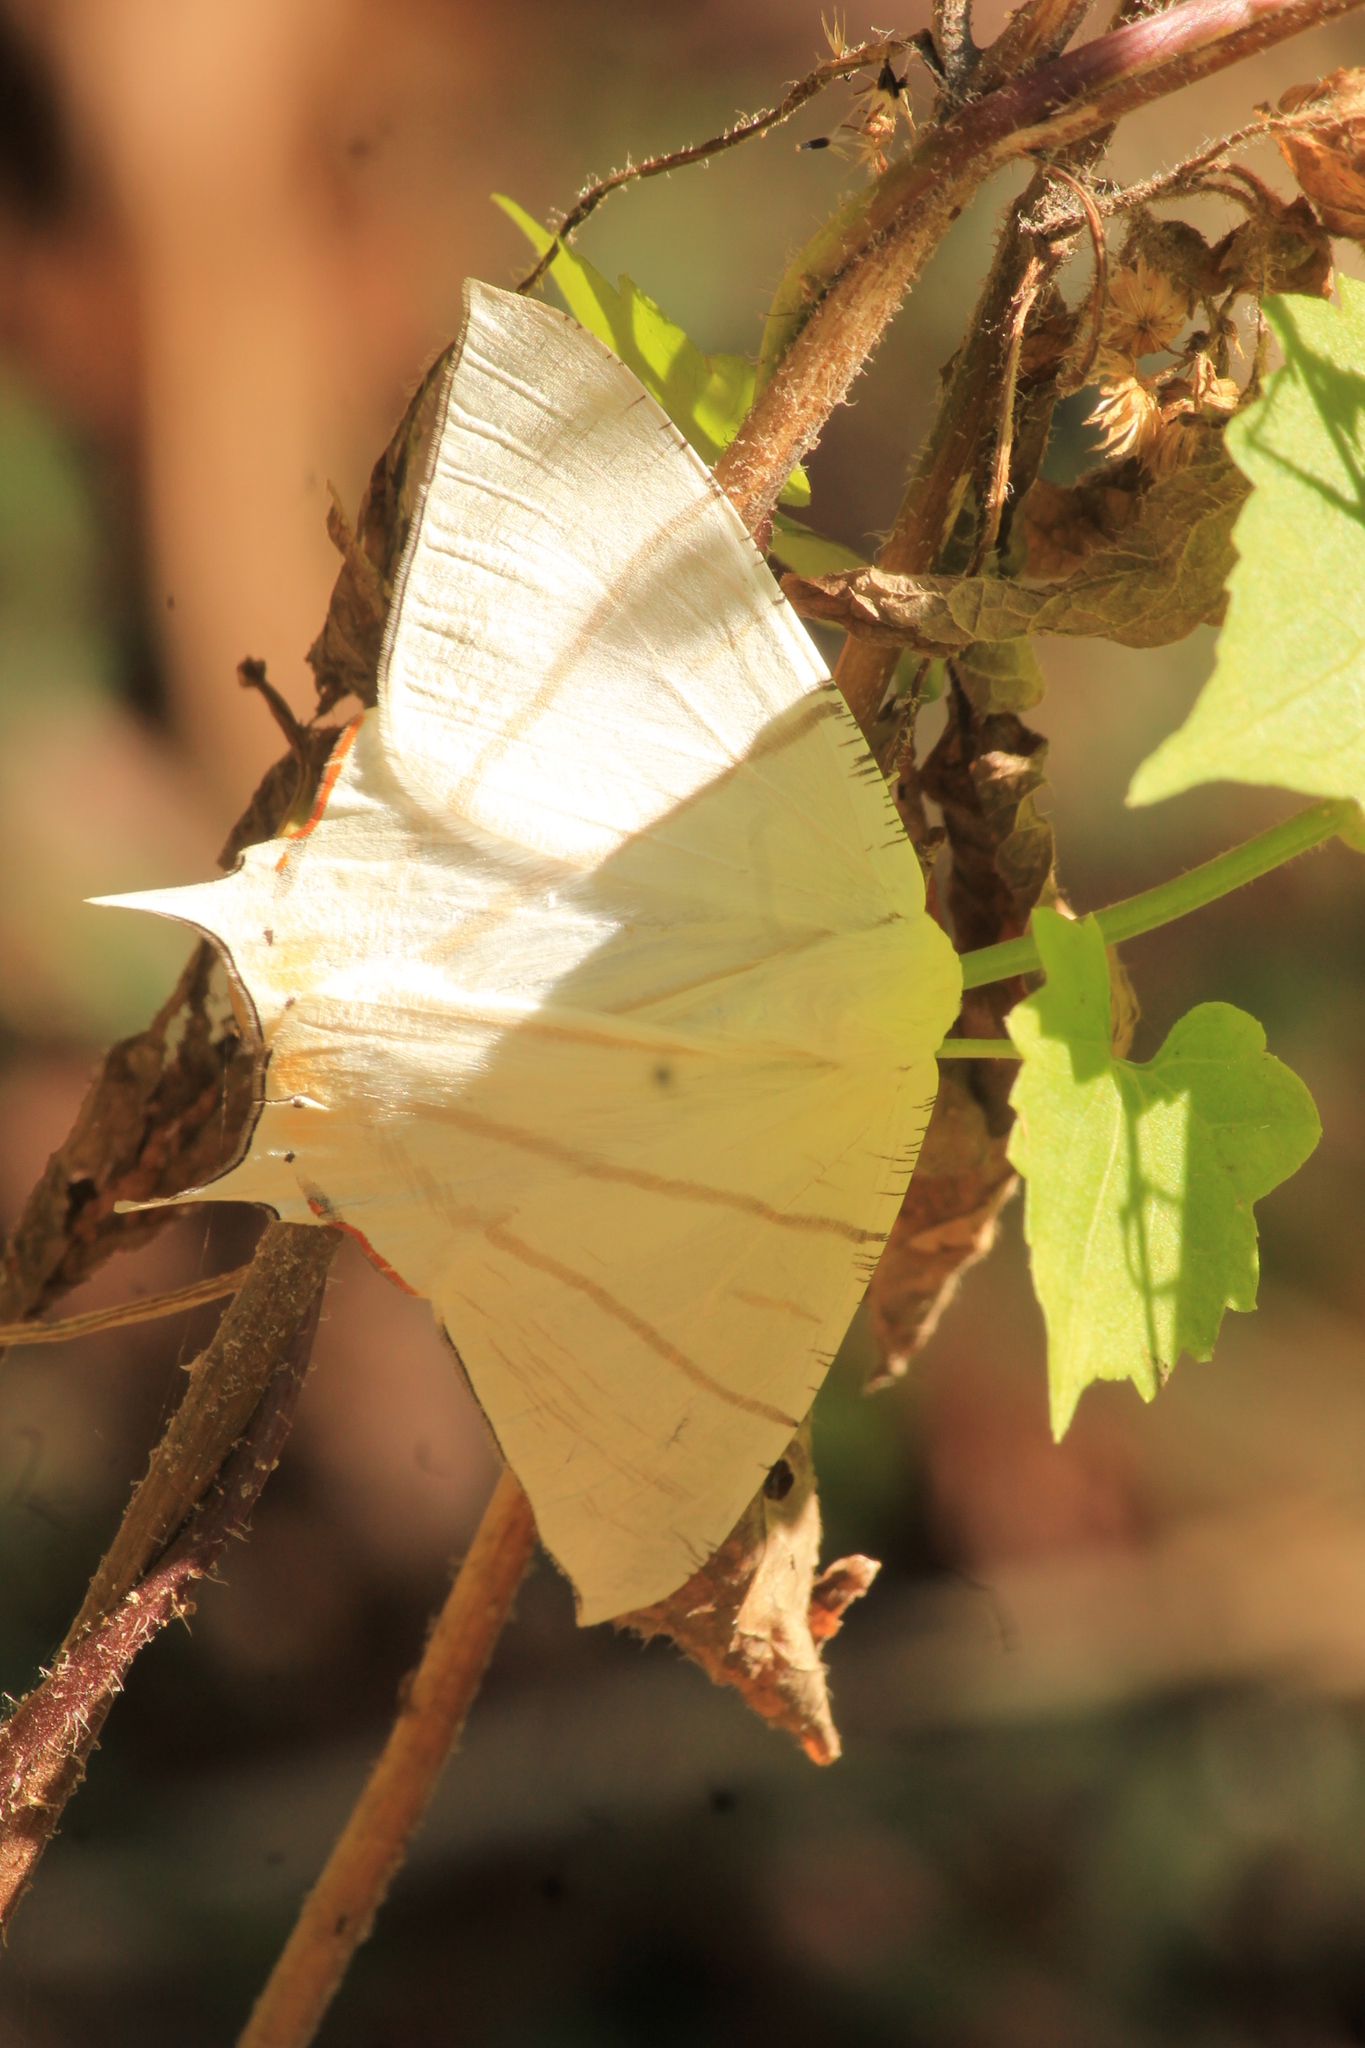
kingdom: Animalia
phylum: Arthropoda
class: Insecta
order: Lepidoptera
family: Geometridae
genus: Ourapteryx
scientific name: Ourapteryx marginata
